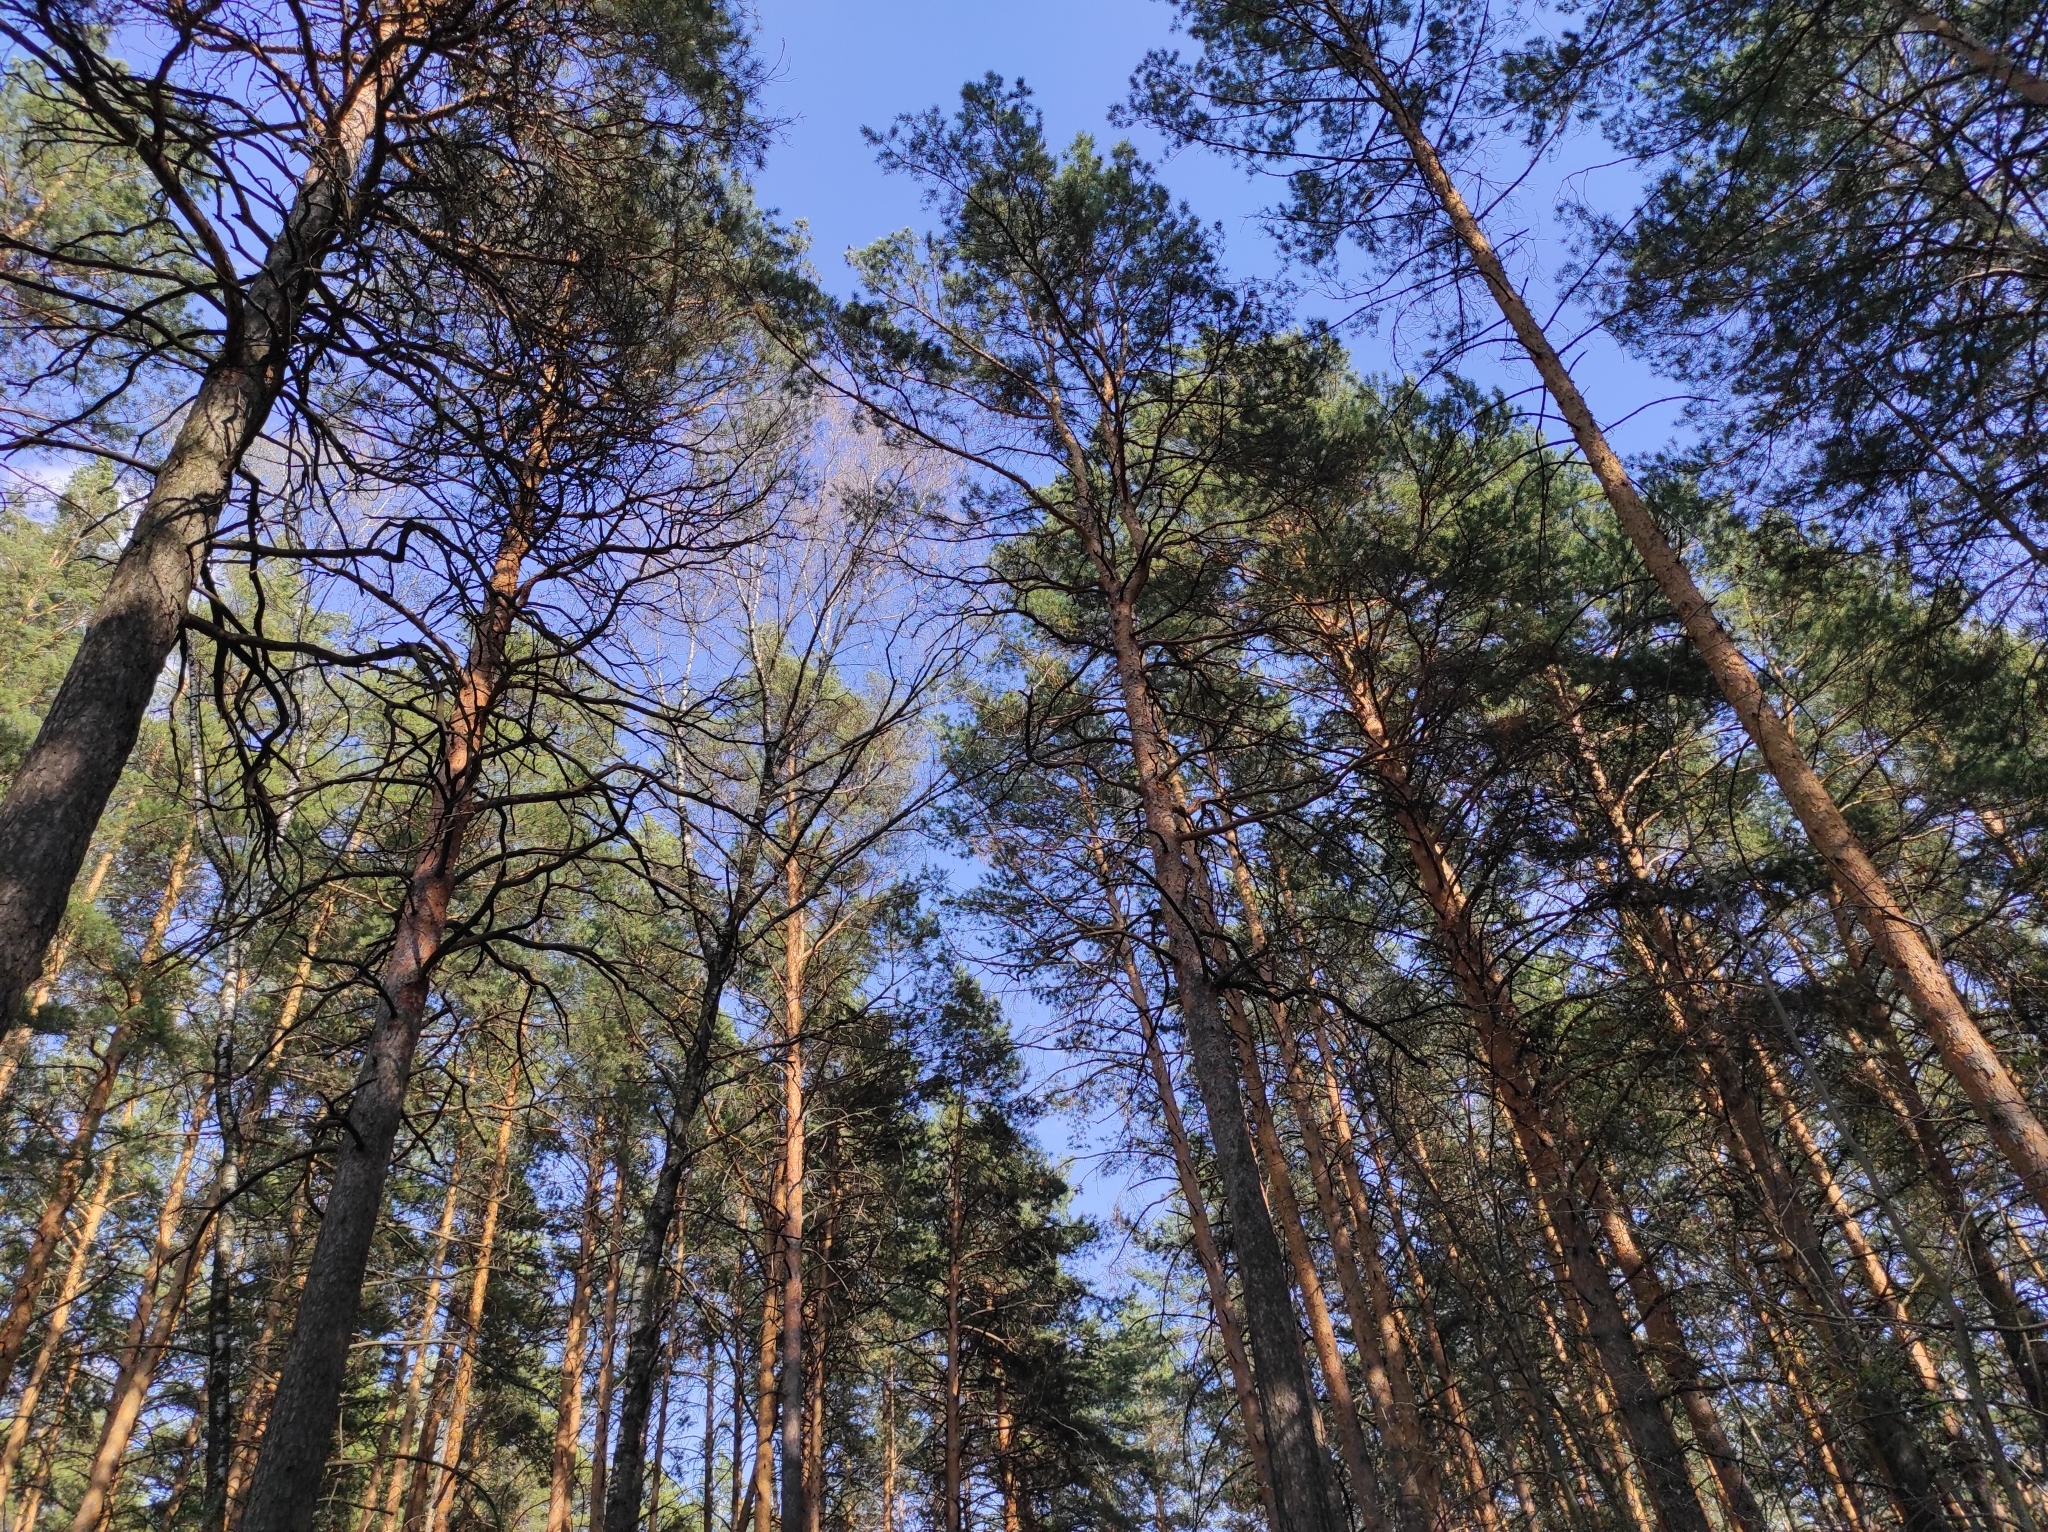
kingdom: Plantae
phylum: Tracheophyta
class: Pinopsida
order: Pinales
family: Pinaceae
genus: Pinus
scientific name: Pinus sylvestris
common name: Scots pine
